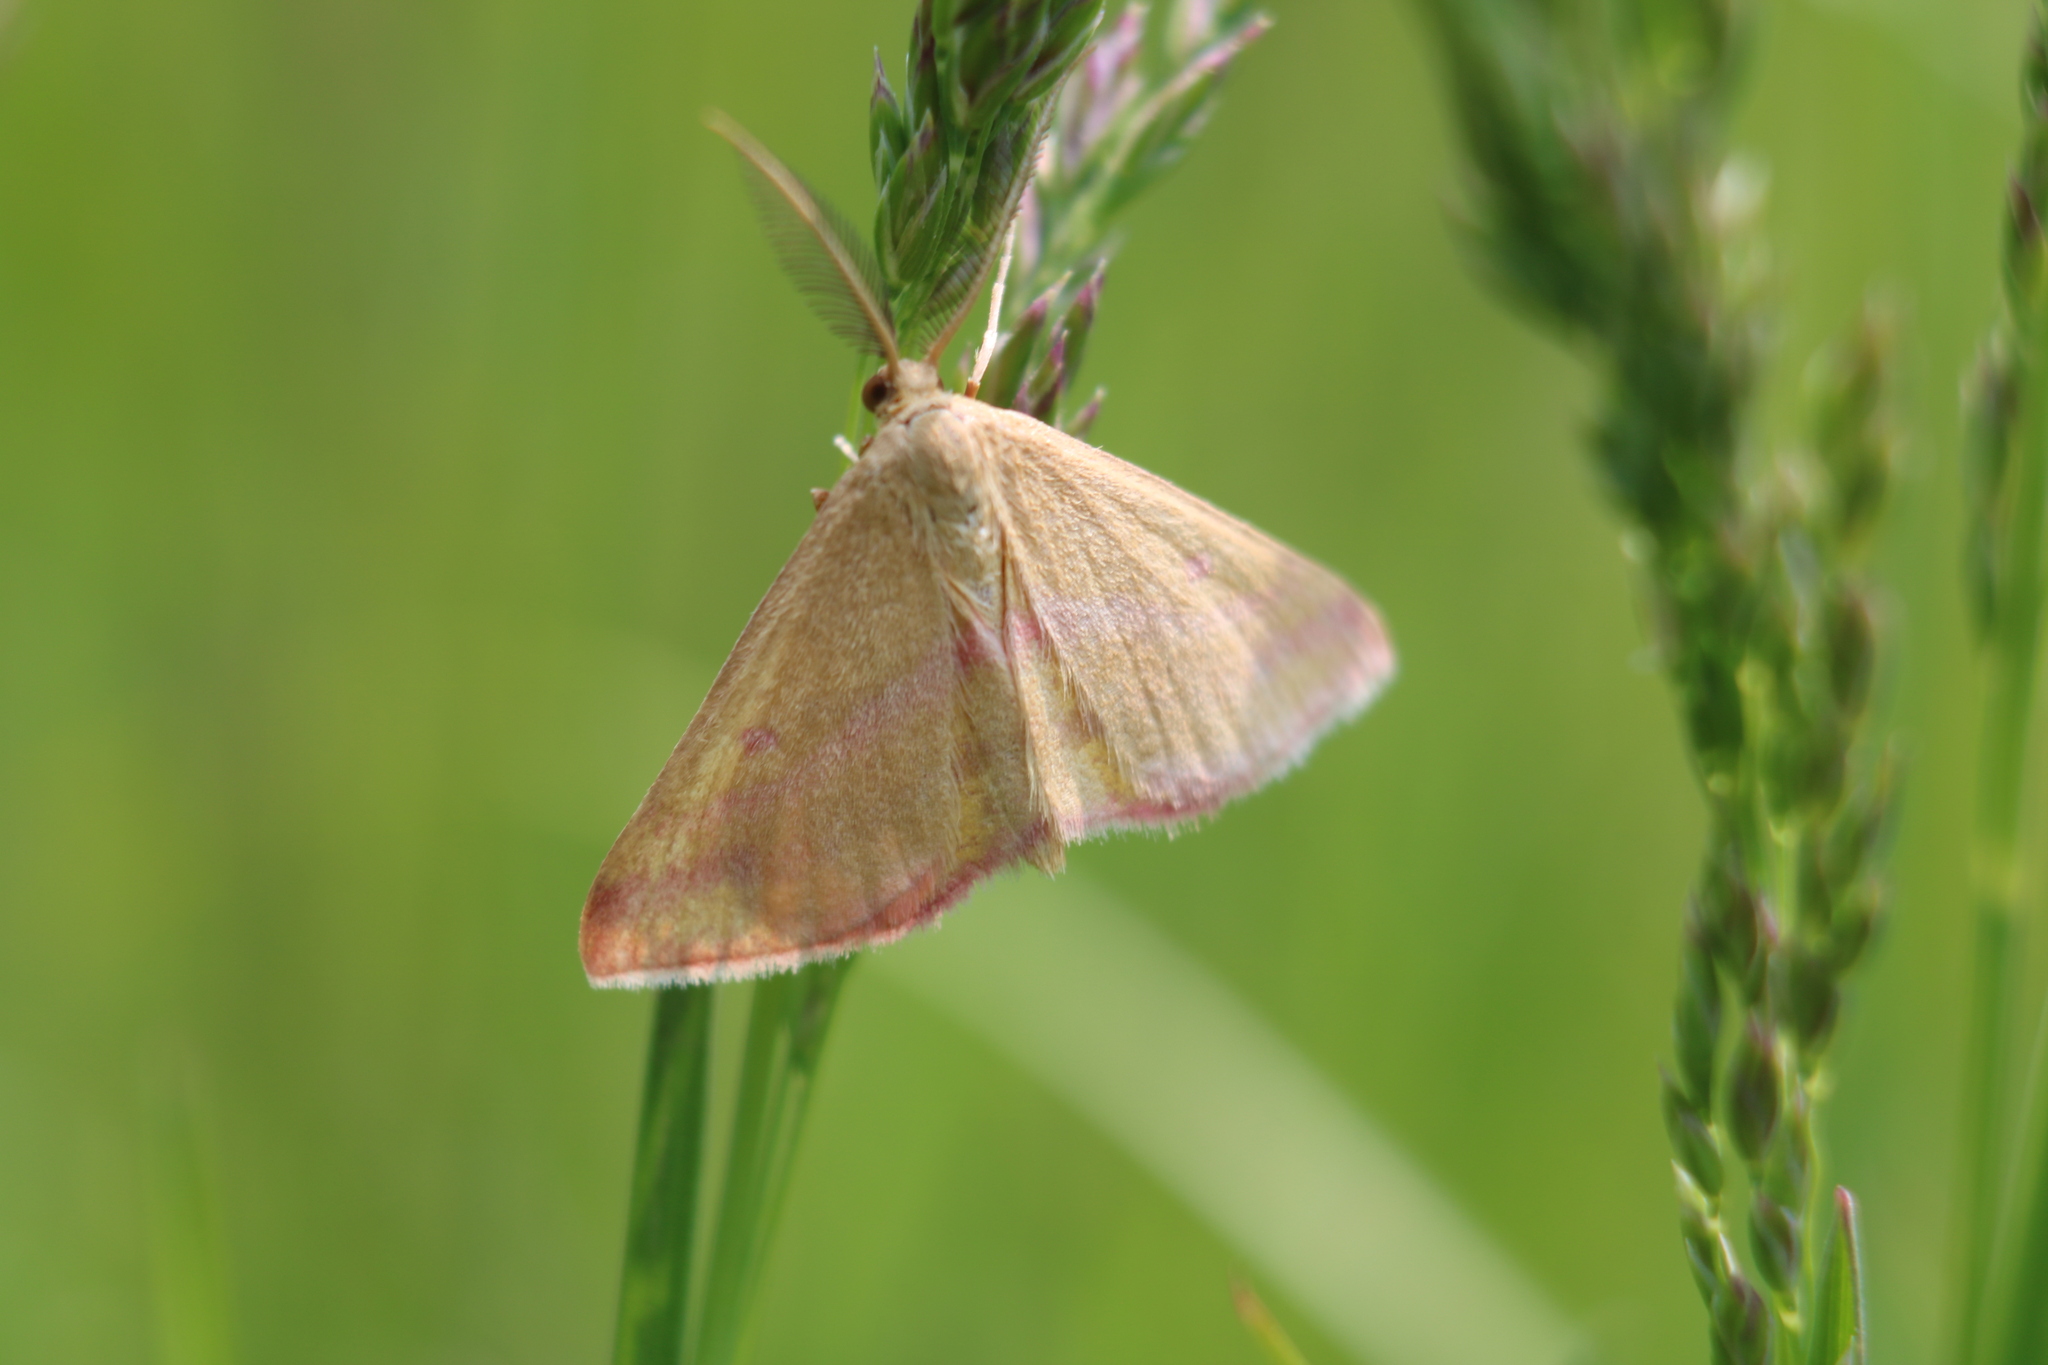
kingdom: Animalia
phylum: Arthropoda
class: Insecta
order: Lepidoptera
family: Geometridae
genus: Haematopis
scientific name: Haematopis grataria
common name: Chickweed geometer
